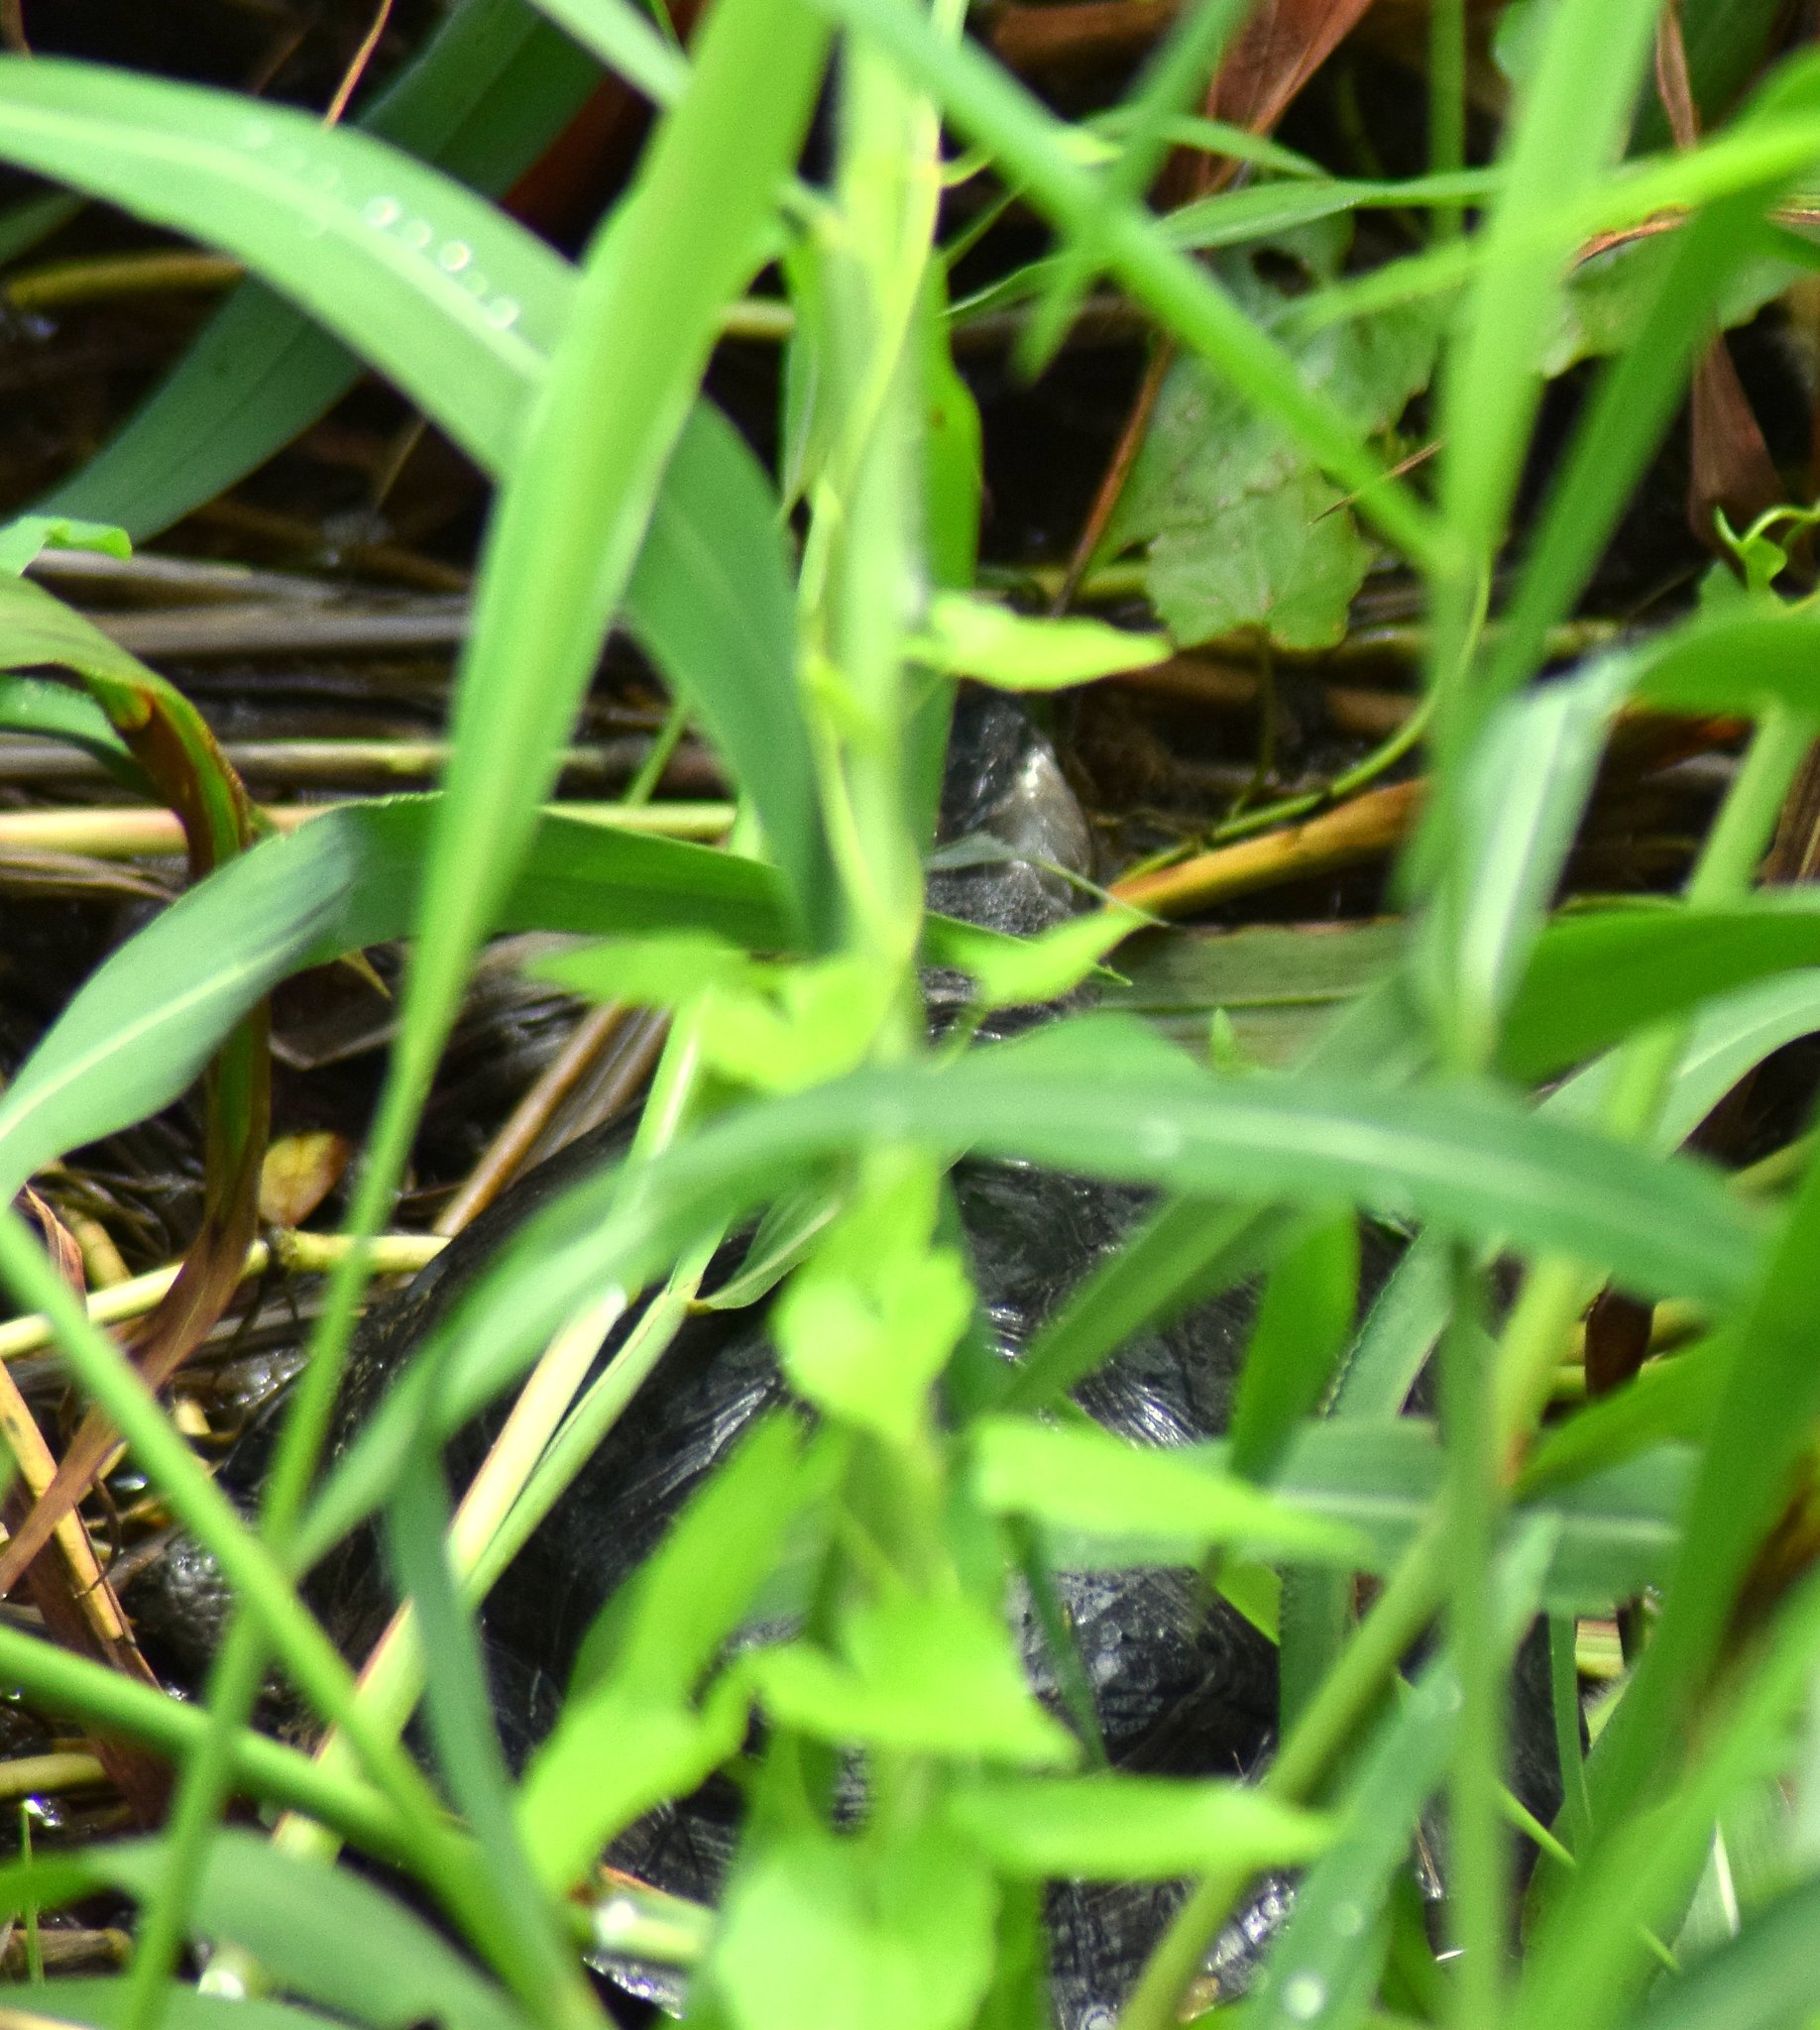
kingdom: Animalia
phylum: Chordata
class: Testudines
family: Geoemydidae
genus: Melanochelys
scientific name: Melanochelys trijuga
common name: Indian black turtle
